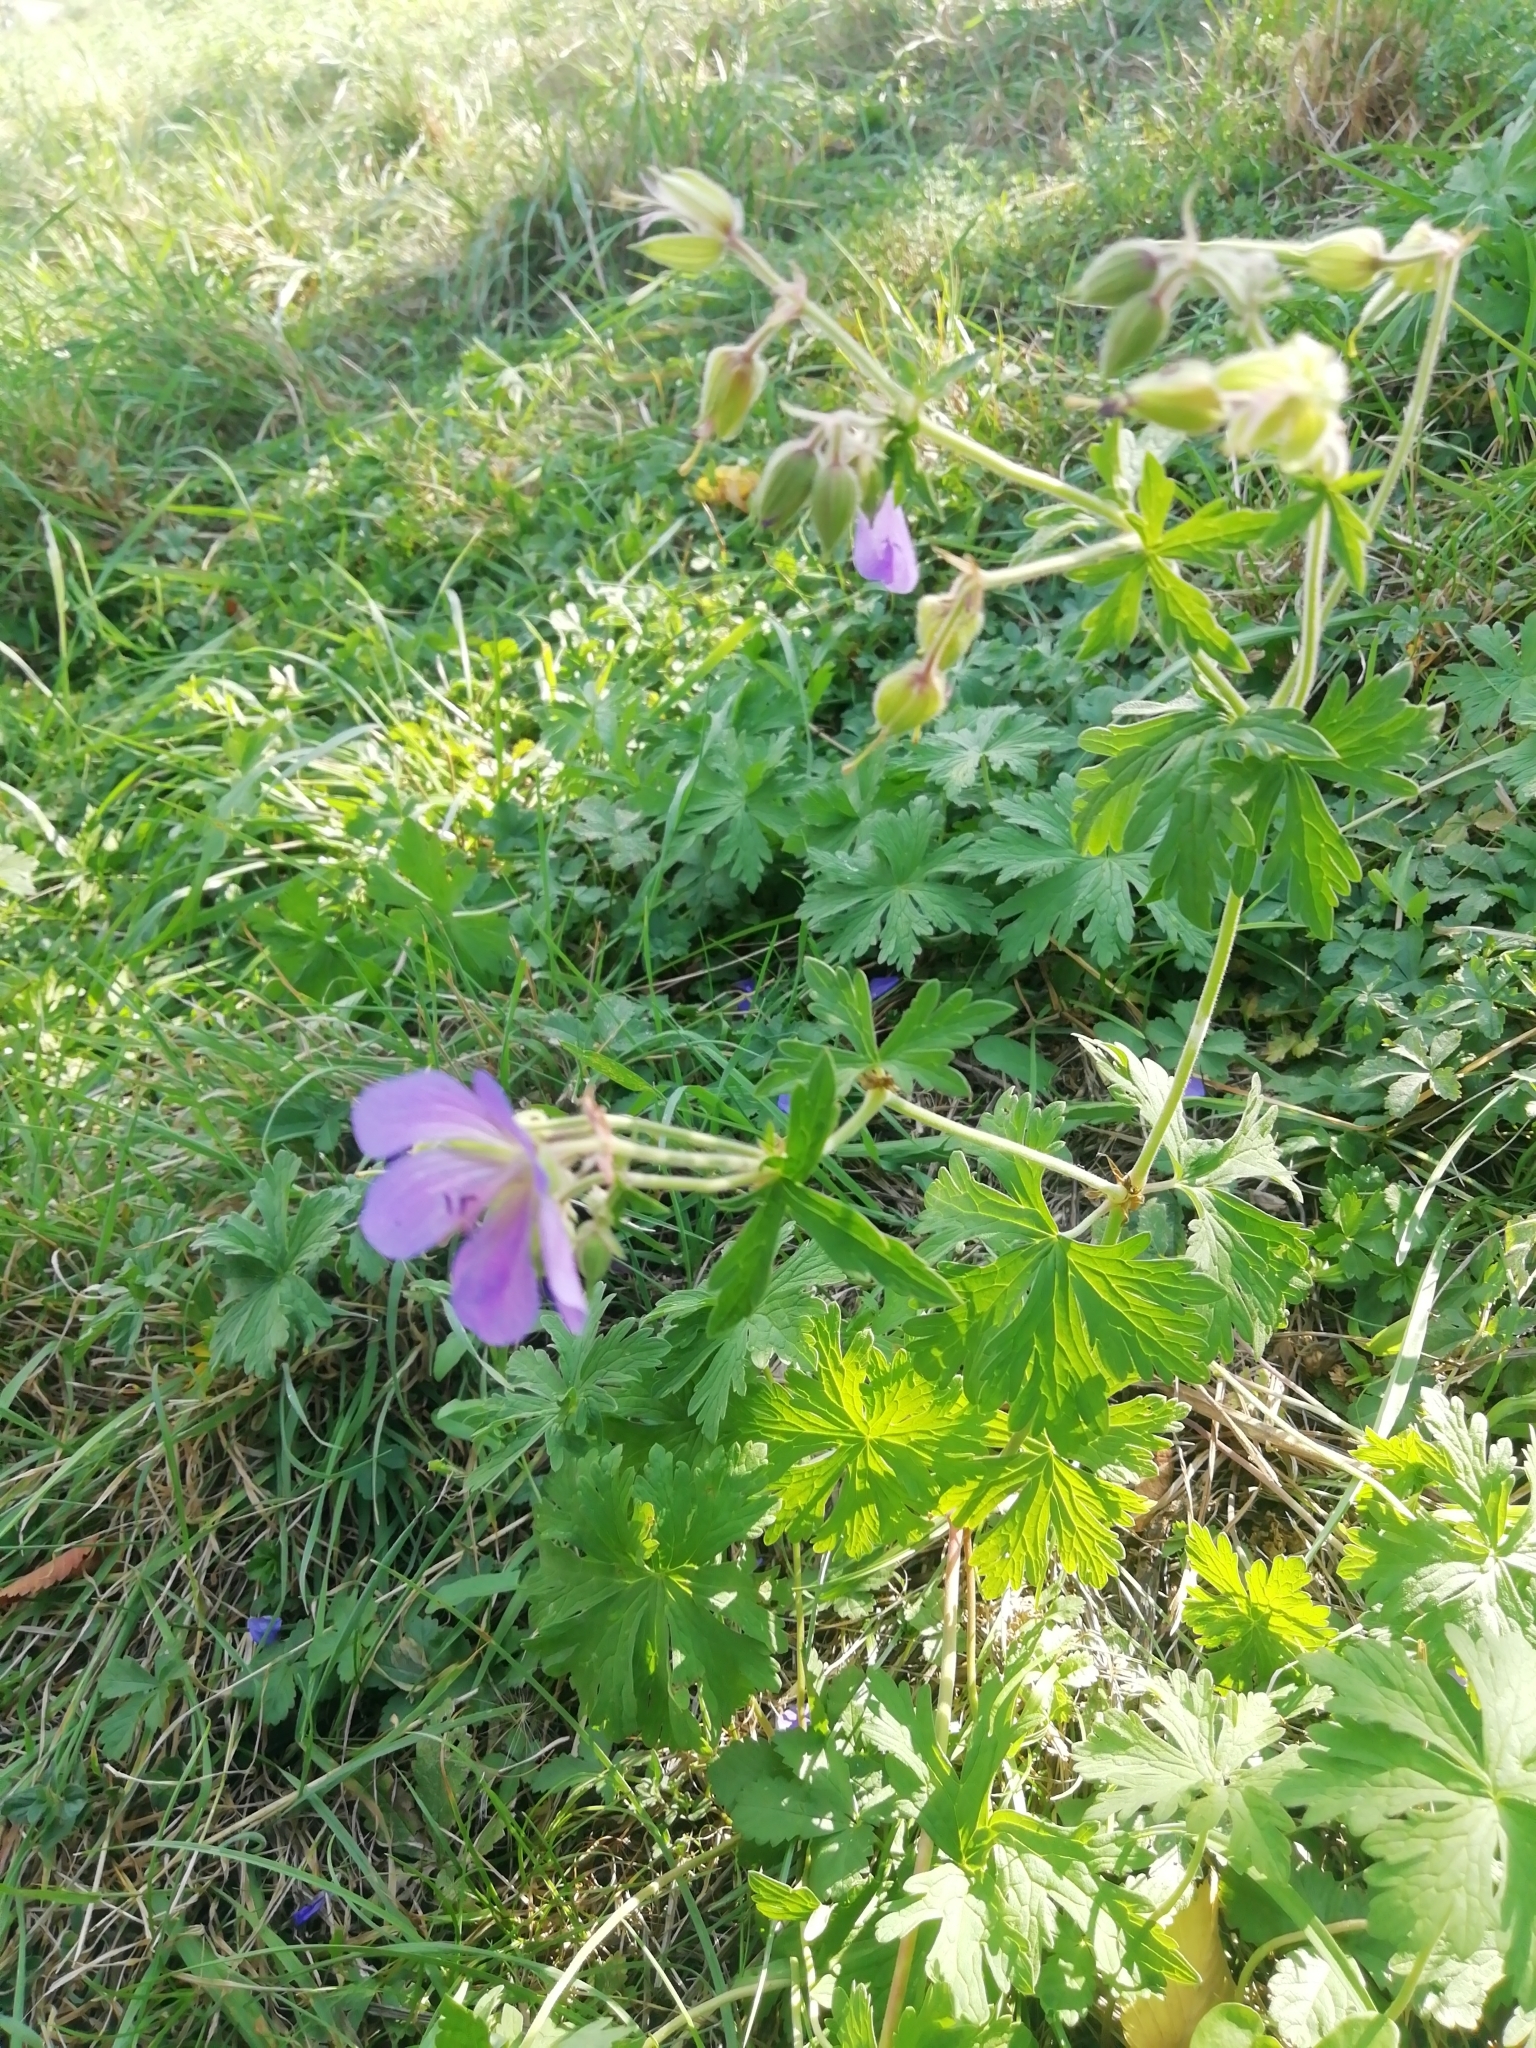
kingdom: Plantae
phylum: Tracheophyta
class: Magnoliopsida
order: Geraniales
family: Geraniaceae
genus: Geranium
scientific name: Geranium pratense
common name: Meadow crane's-bill
